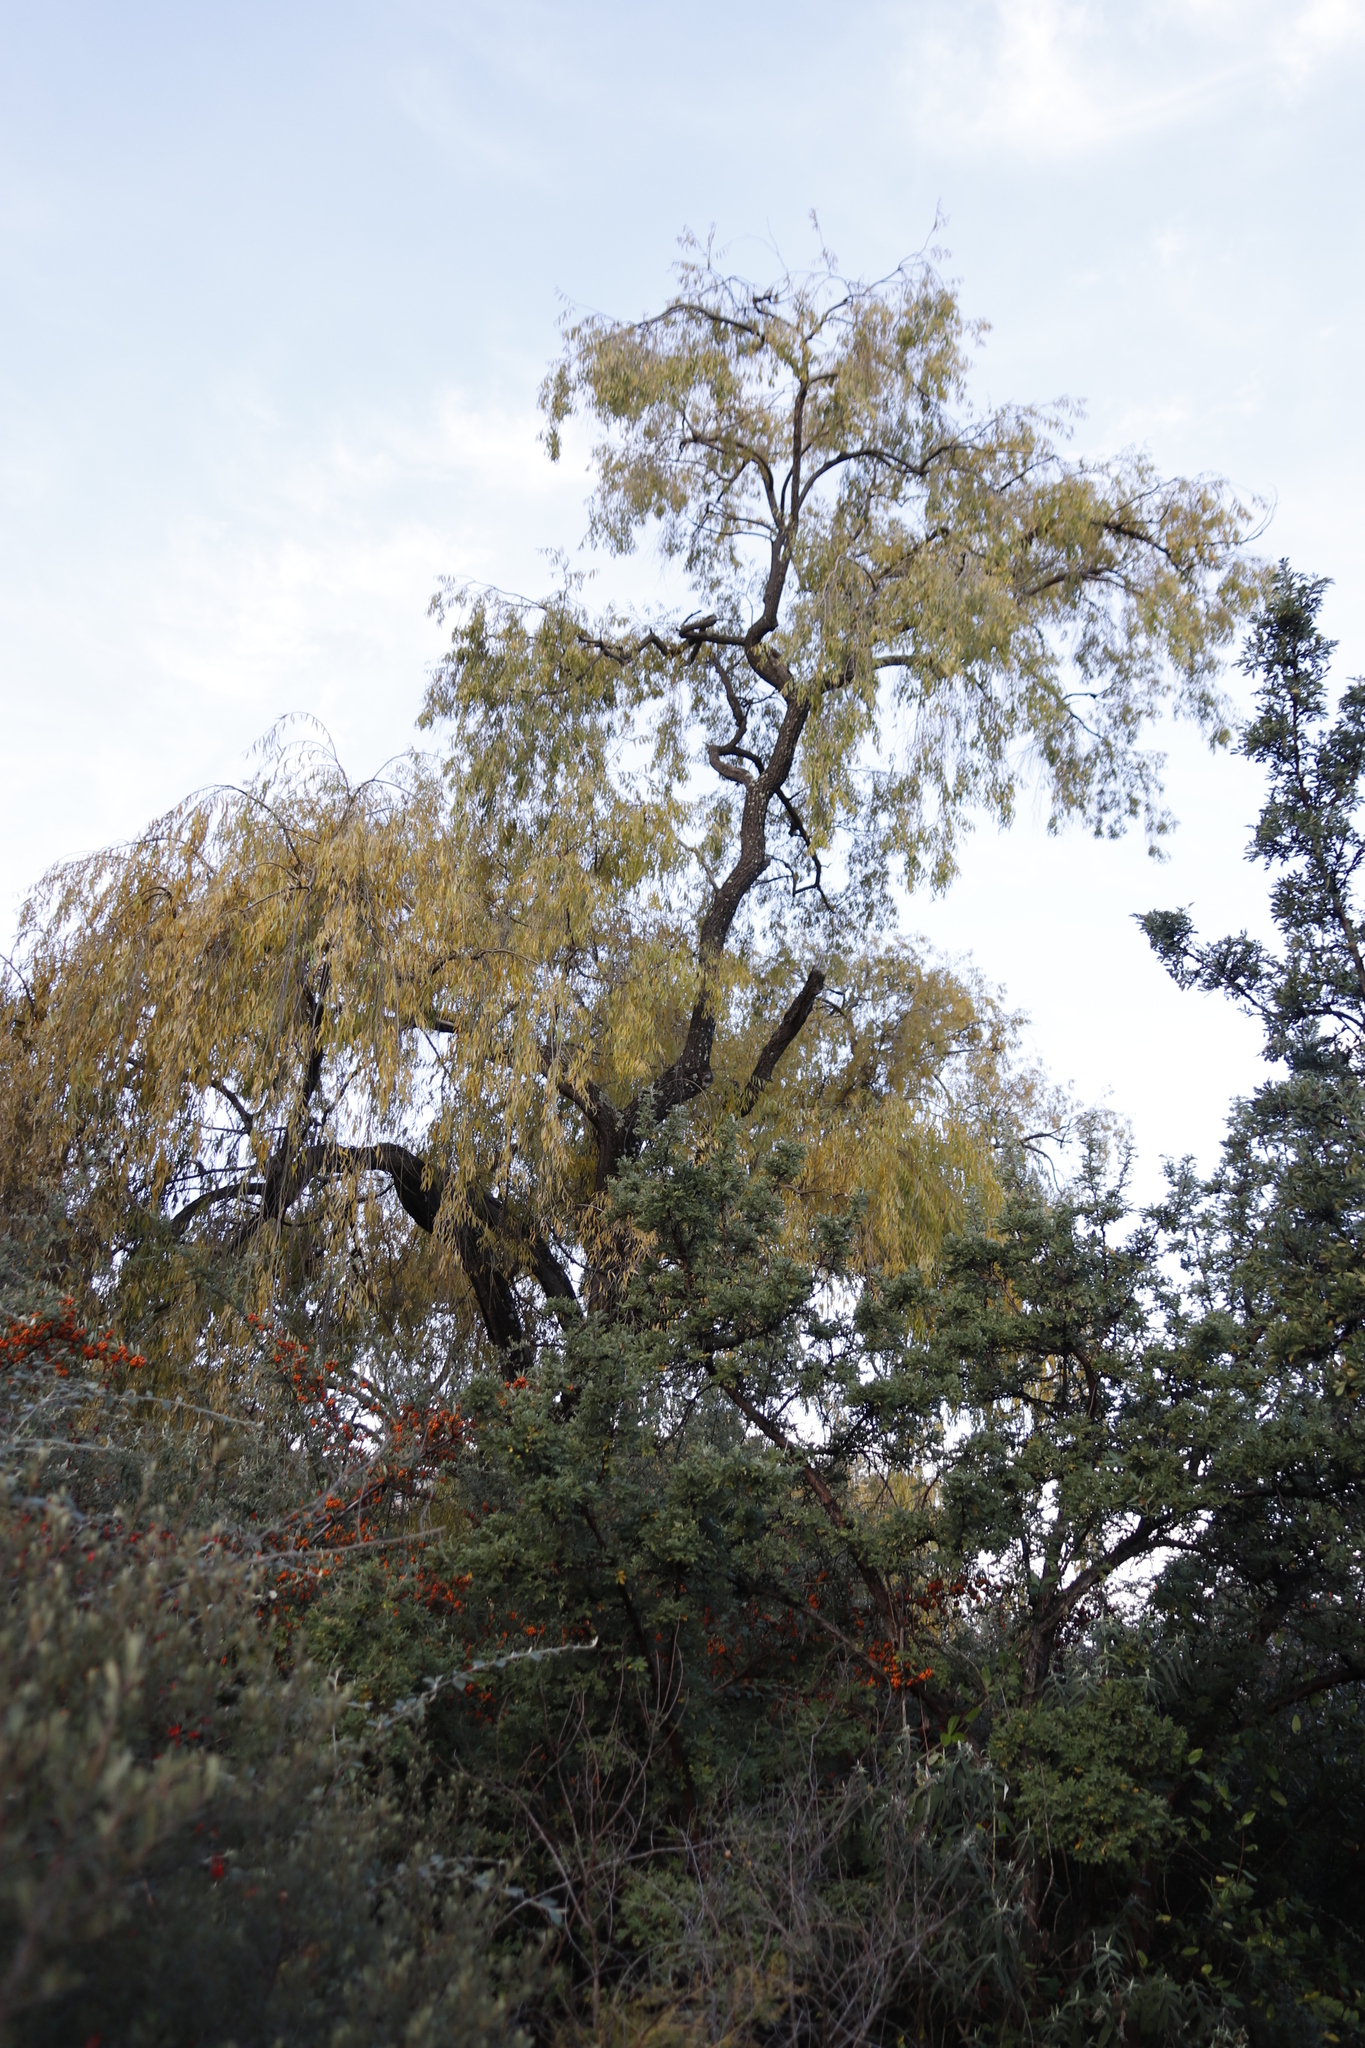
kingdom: Plantae
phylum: Tracheophyta
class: Magnoliopsida
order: Malpighiales
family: Salicaceae
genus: Salix
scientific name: Salix babylonica
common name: Weeping willow
